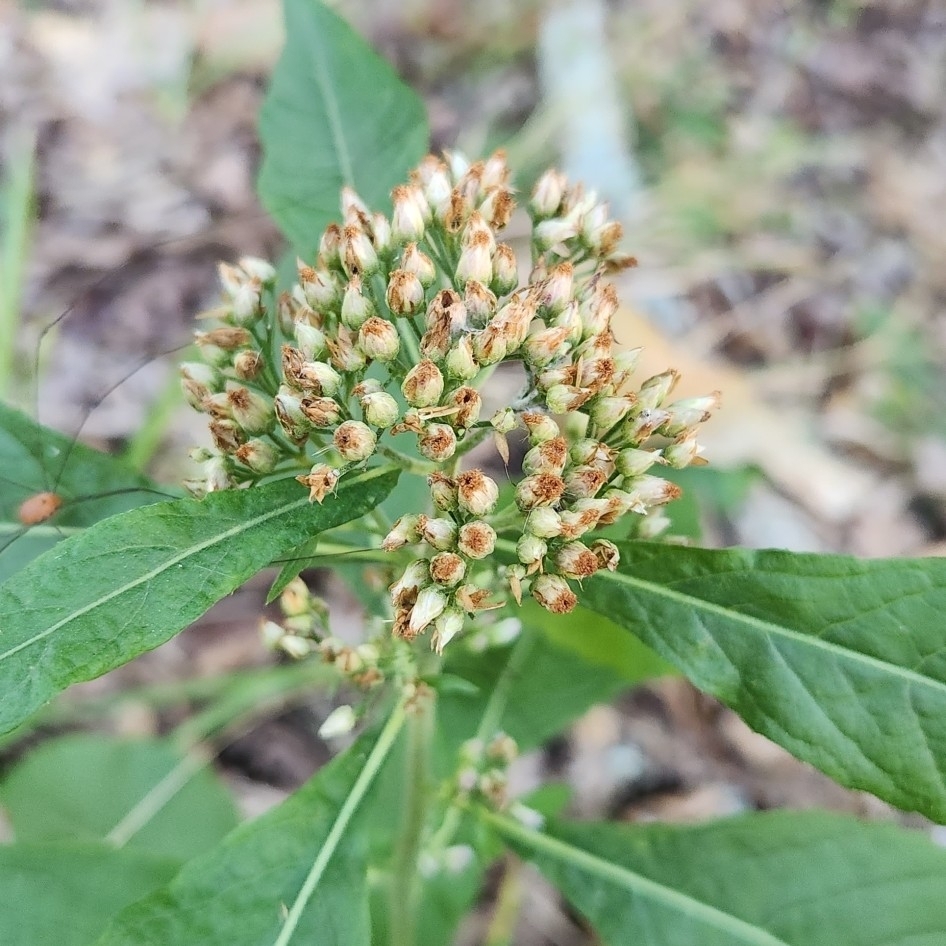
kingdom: Plantae
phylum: Tracheophyta
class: Magnoliopsida
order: Asterales
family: Asteraceae
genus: Pluchea
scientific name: Pluchea camphorata
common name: Camphor pluchea
